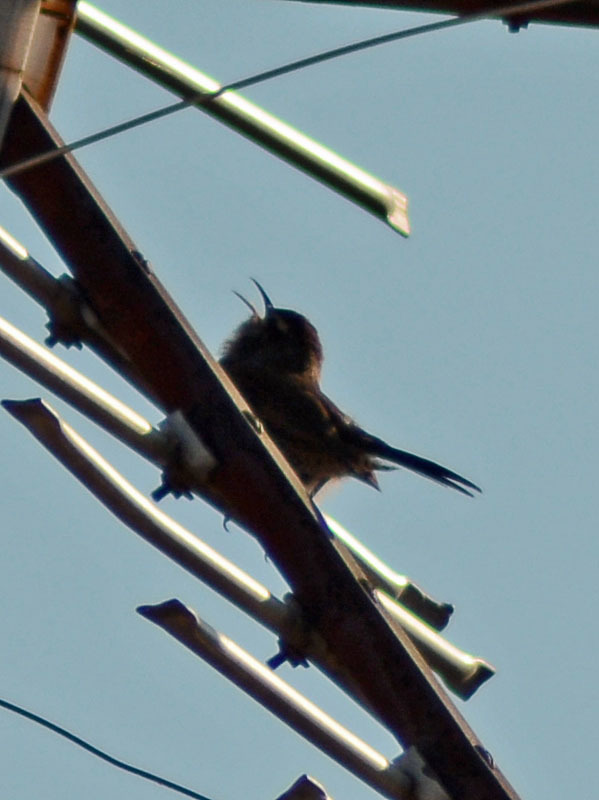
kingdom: Animalia
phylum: Chordata
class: Aves
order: Passeriformes
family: Troglodytidae
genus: Thryomanes
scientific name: Thryomanes bewickii
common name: Bewick's wren
